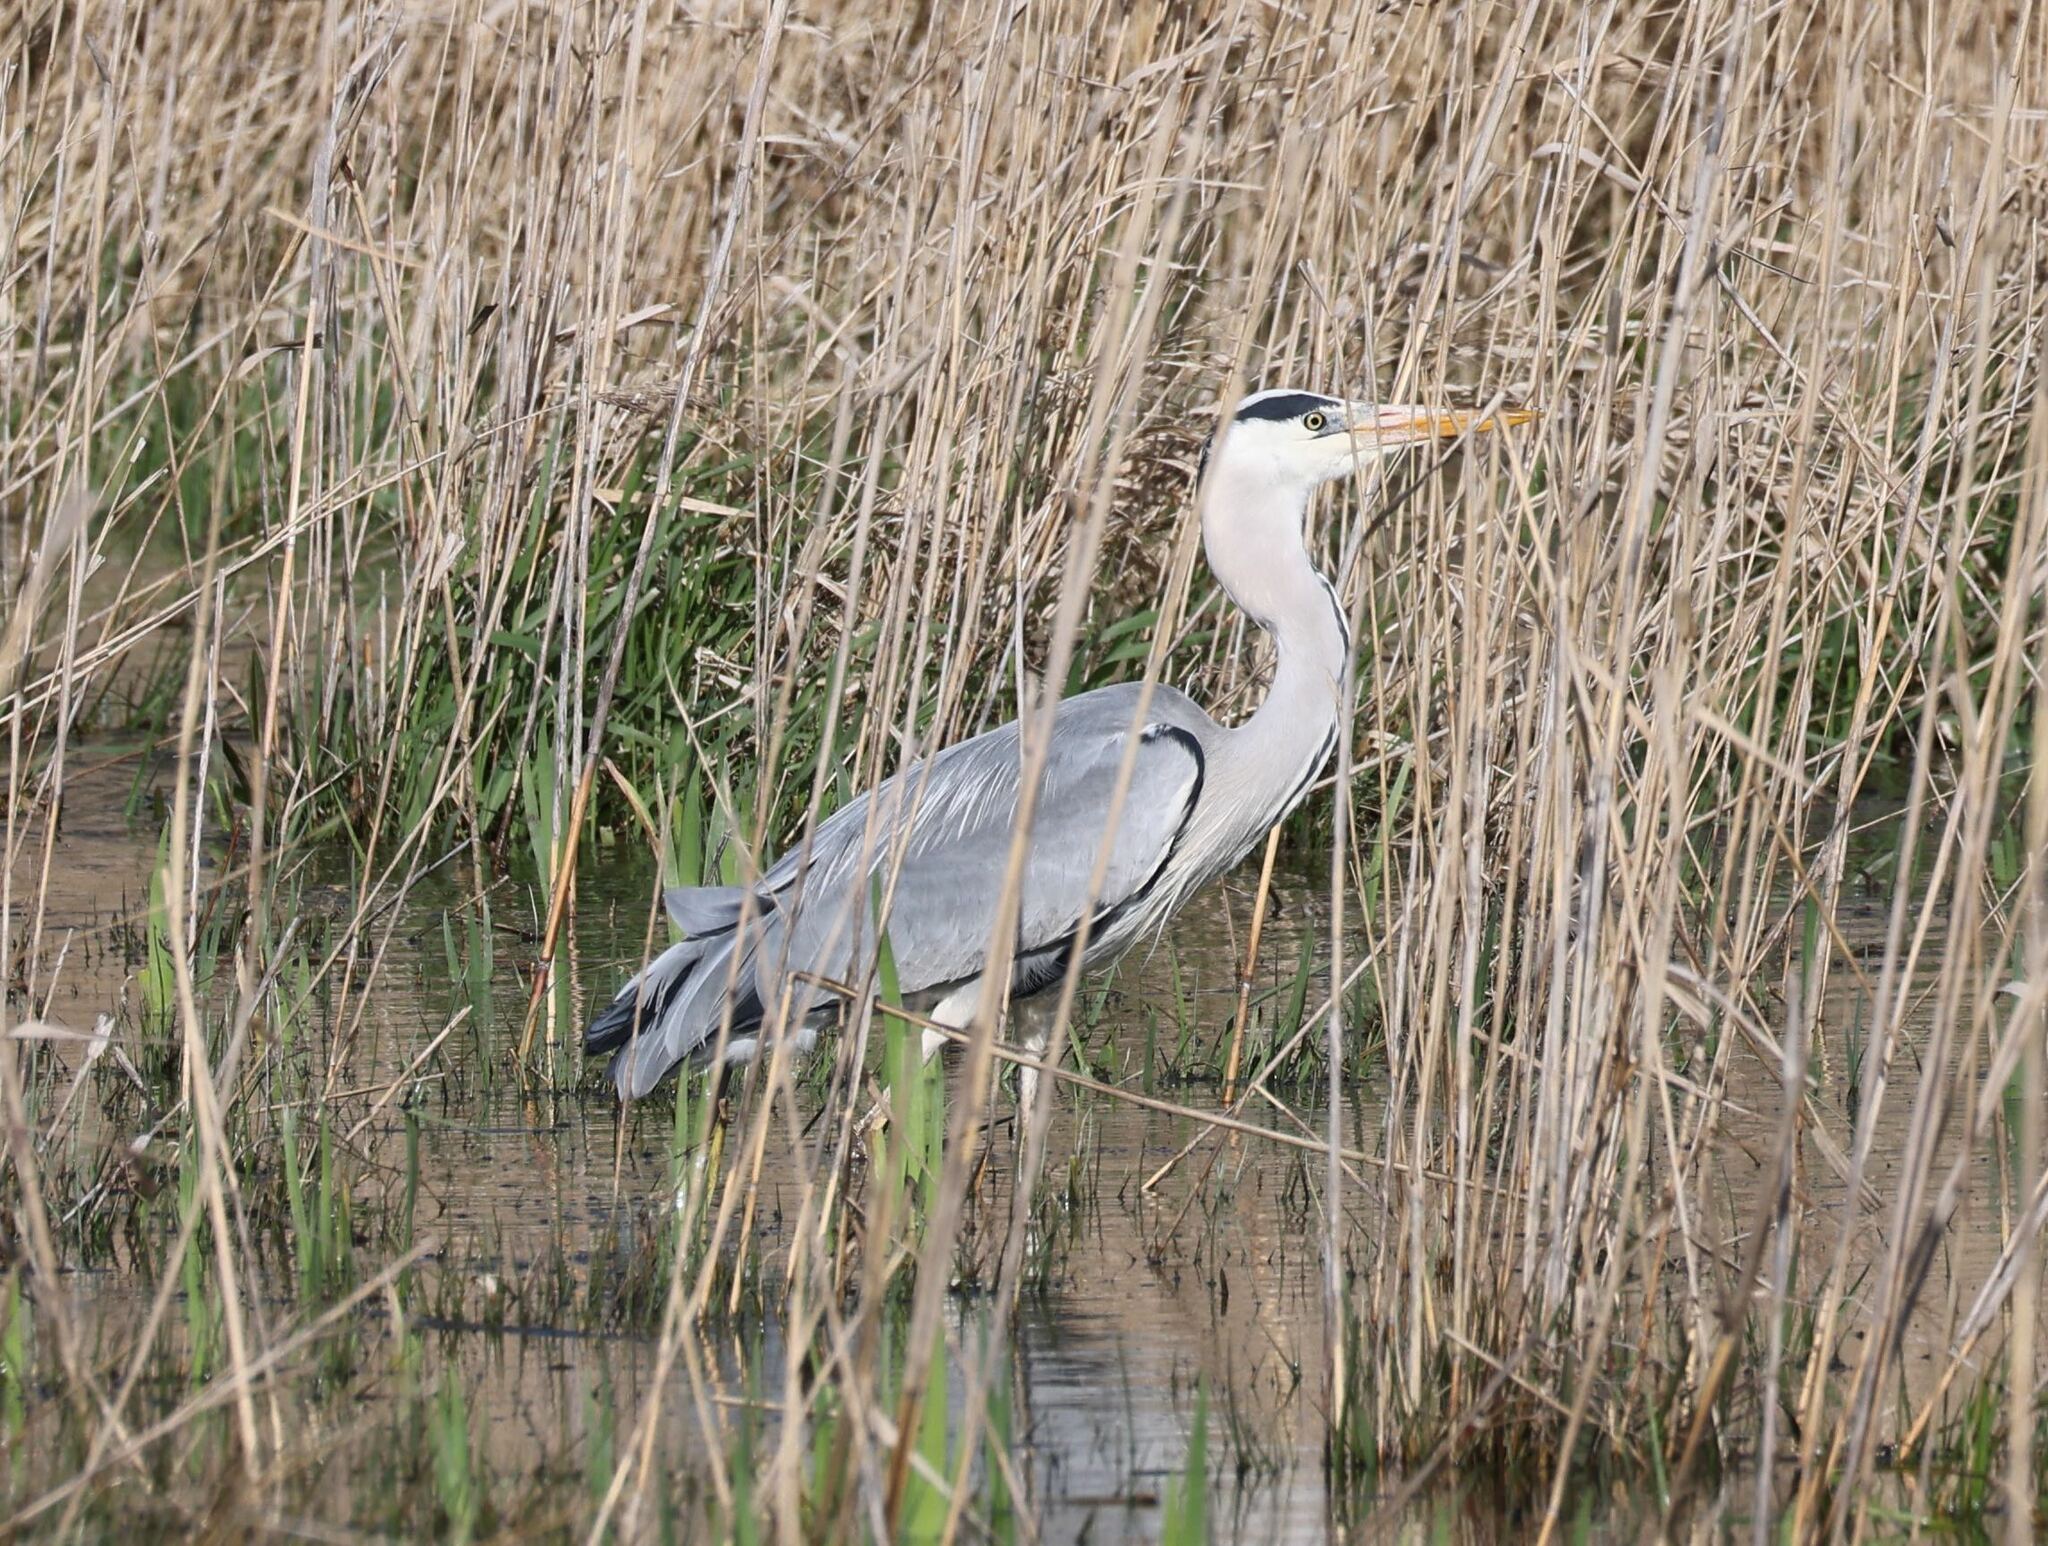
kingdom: Animalia
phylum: Chordata
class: Aves
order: Pelecaniformes
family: Ardeidae
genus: Ardea
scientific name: Ardea cinerea
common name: Grey heron
